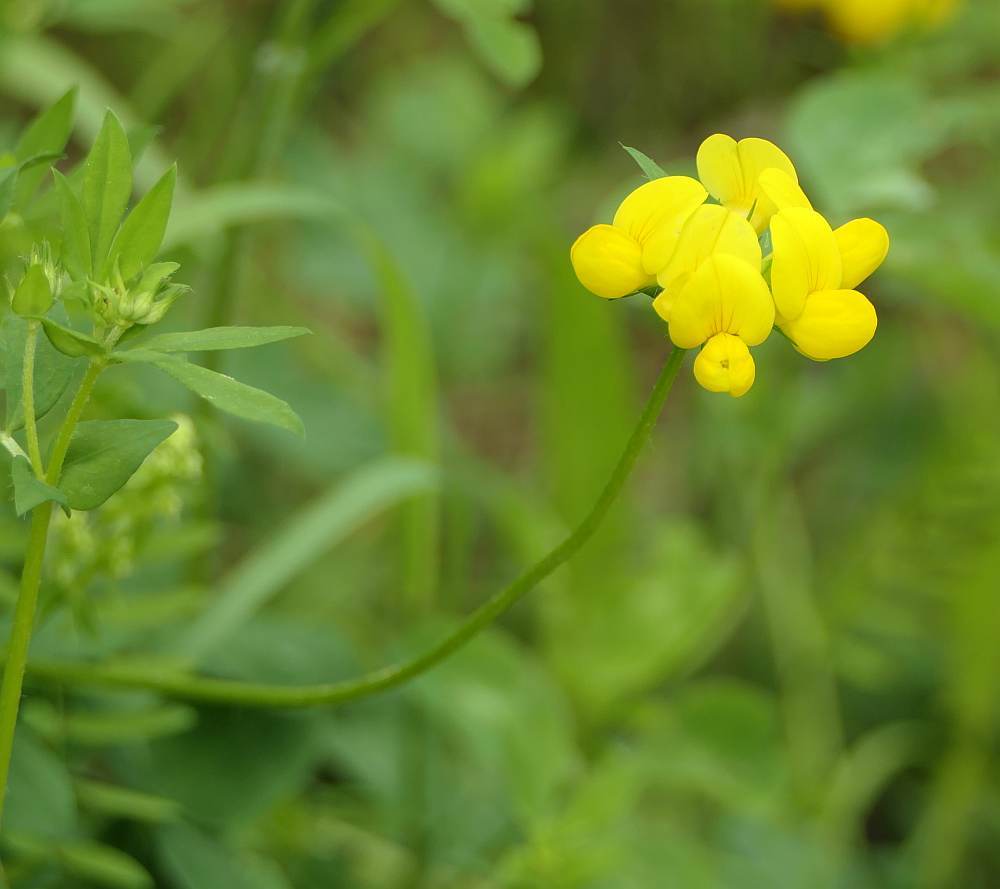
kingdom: Plantae
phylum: Tracheophyta
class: Magnoliopsida
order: Fabales
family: Fabaceae
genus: Lotus
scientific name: Lotus corniculatus
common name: Common bird's-foot-trefoil
